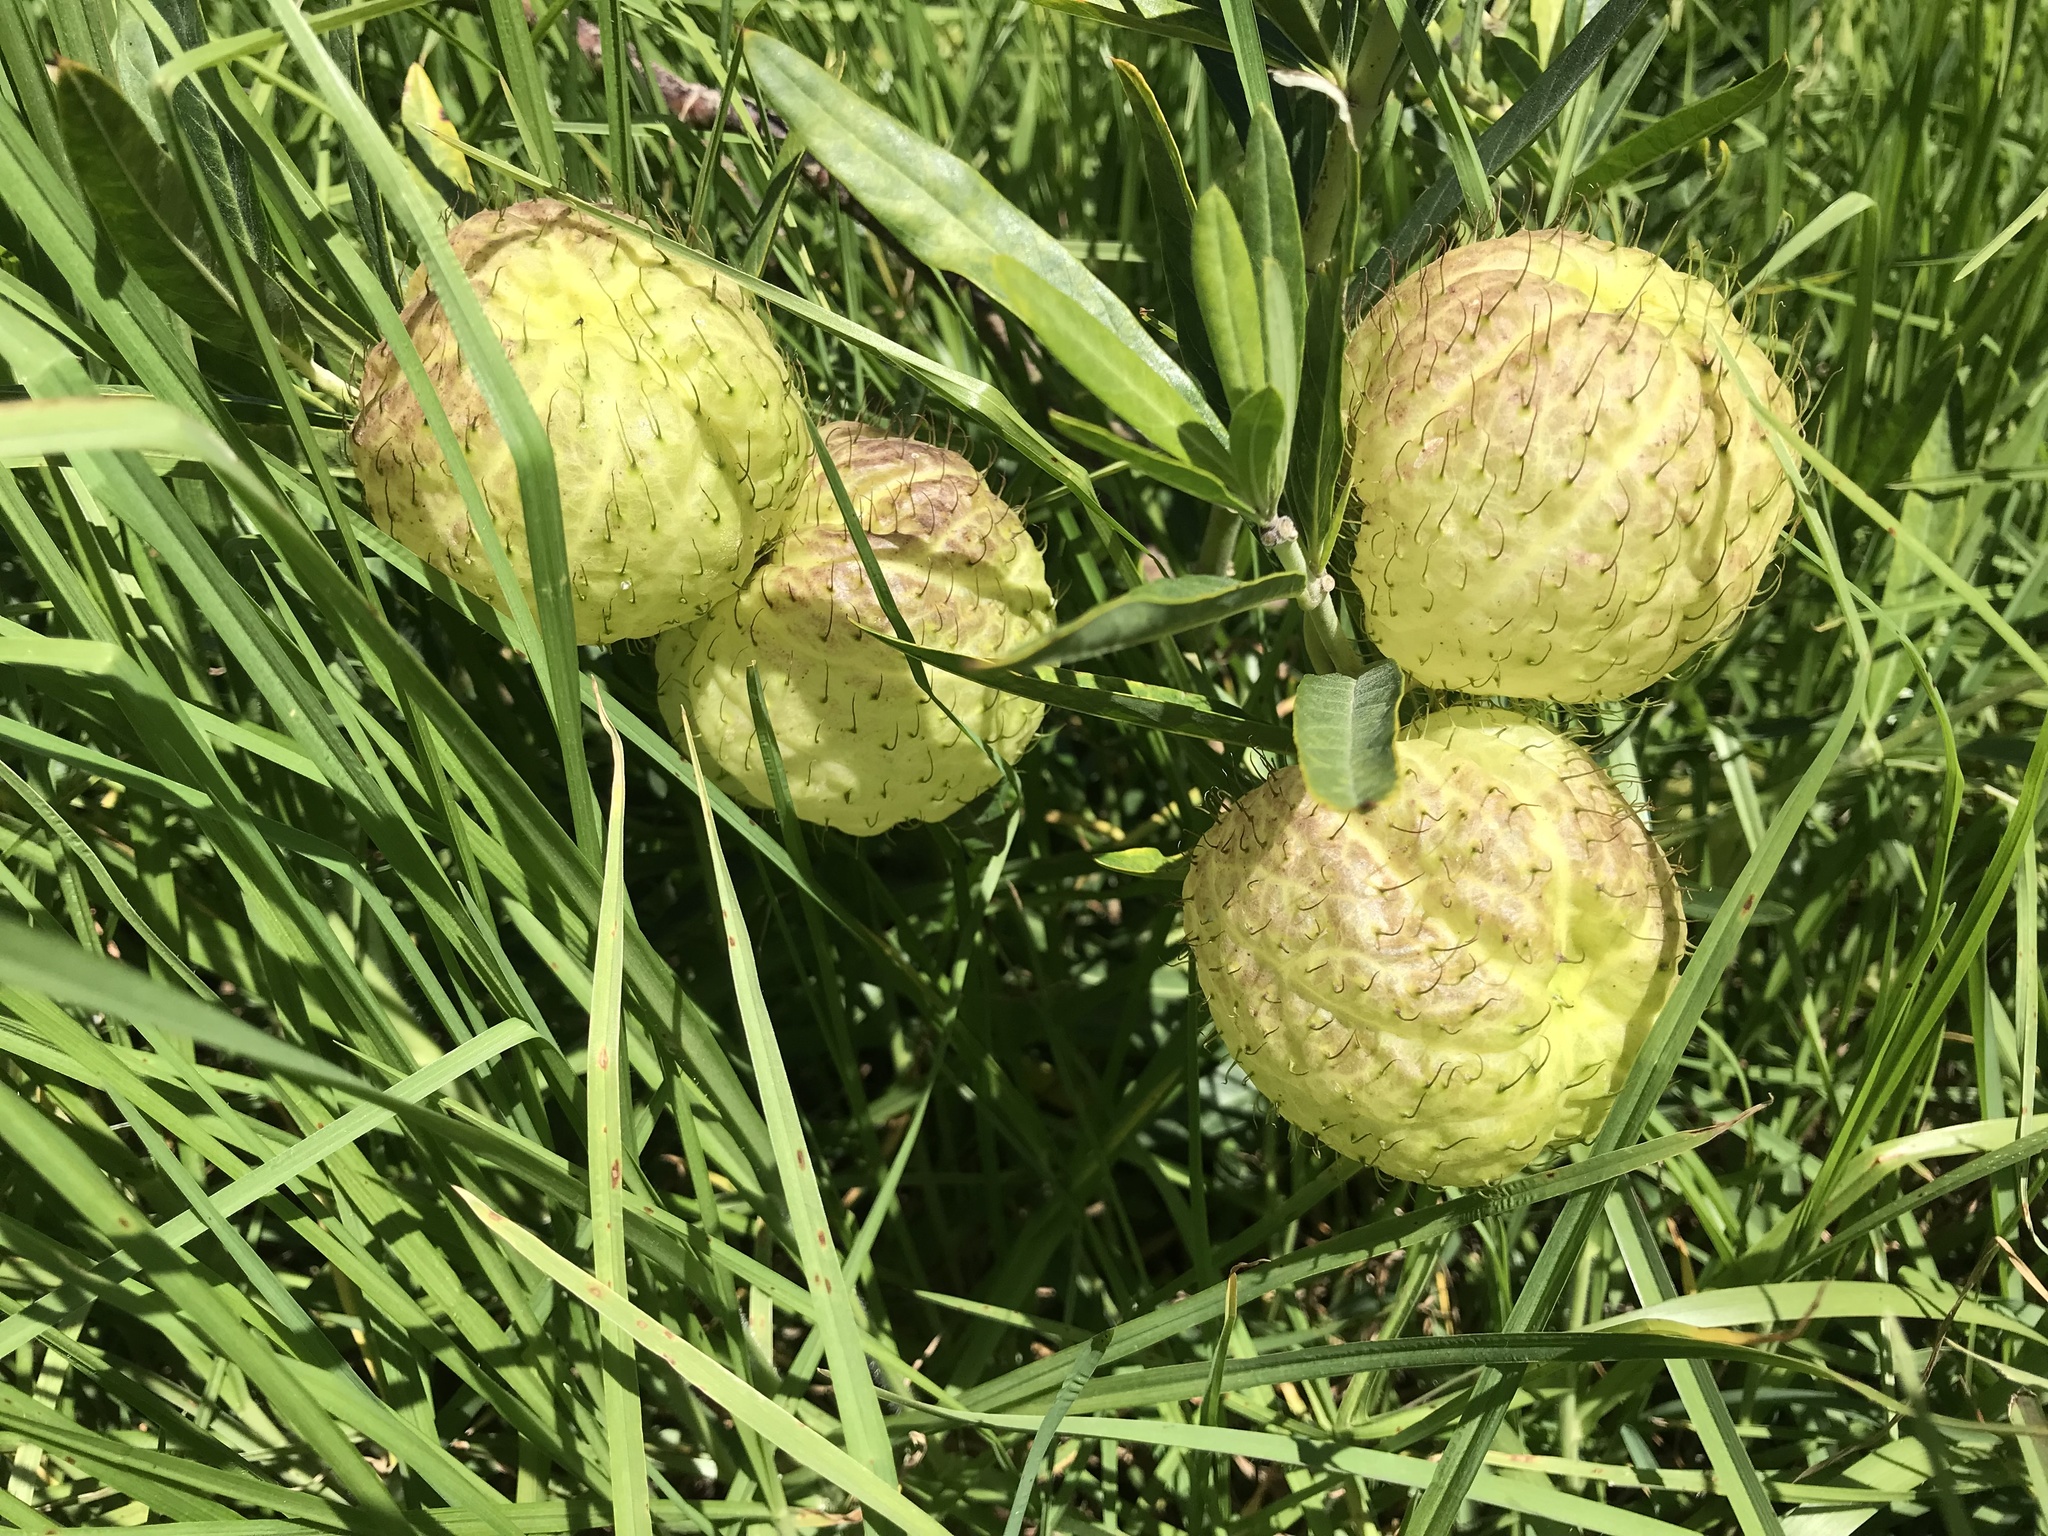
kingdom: Plantae
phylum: Tracheophyta
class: Magnoliopsida
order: Gentianales
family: Apocynaceae
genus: Gomphocarpus
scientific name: Gomphocarpus physocarpus
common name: Balloon cotton bush
